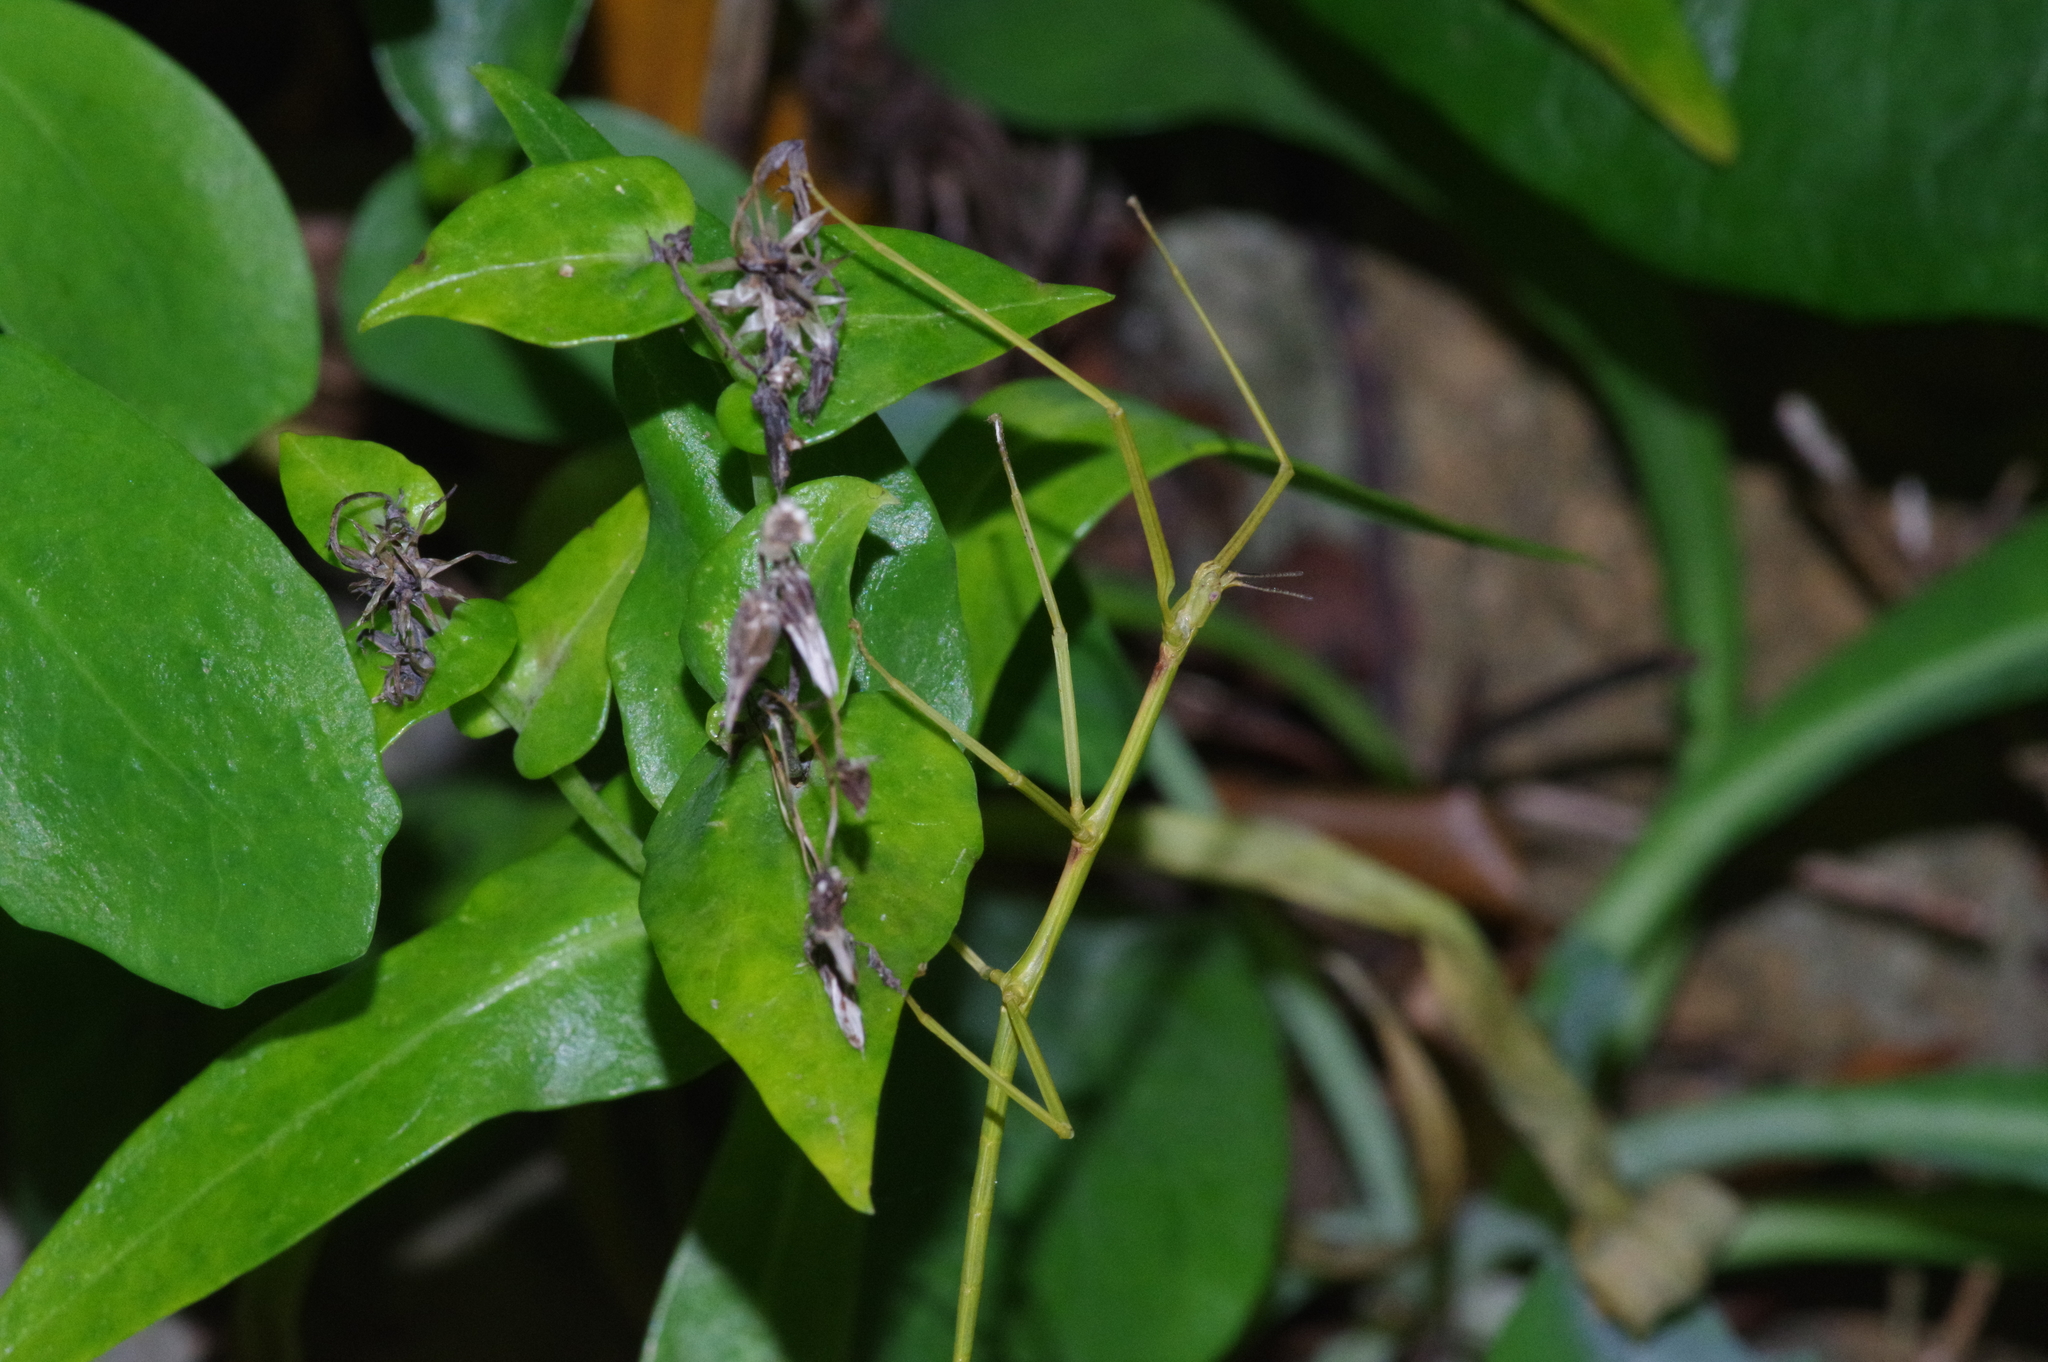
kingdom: Animalia
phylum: Arthropoda
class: Insecta
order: Phasmida
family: Phasmatidae
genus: Entoria
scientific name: Entoria miyakoensis
